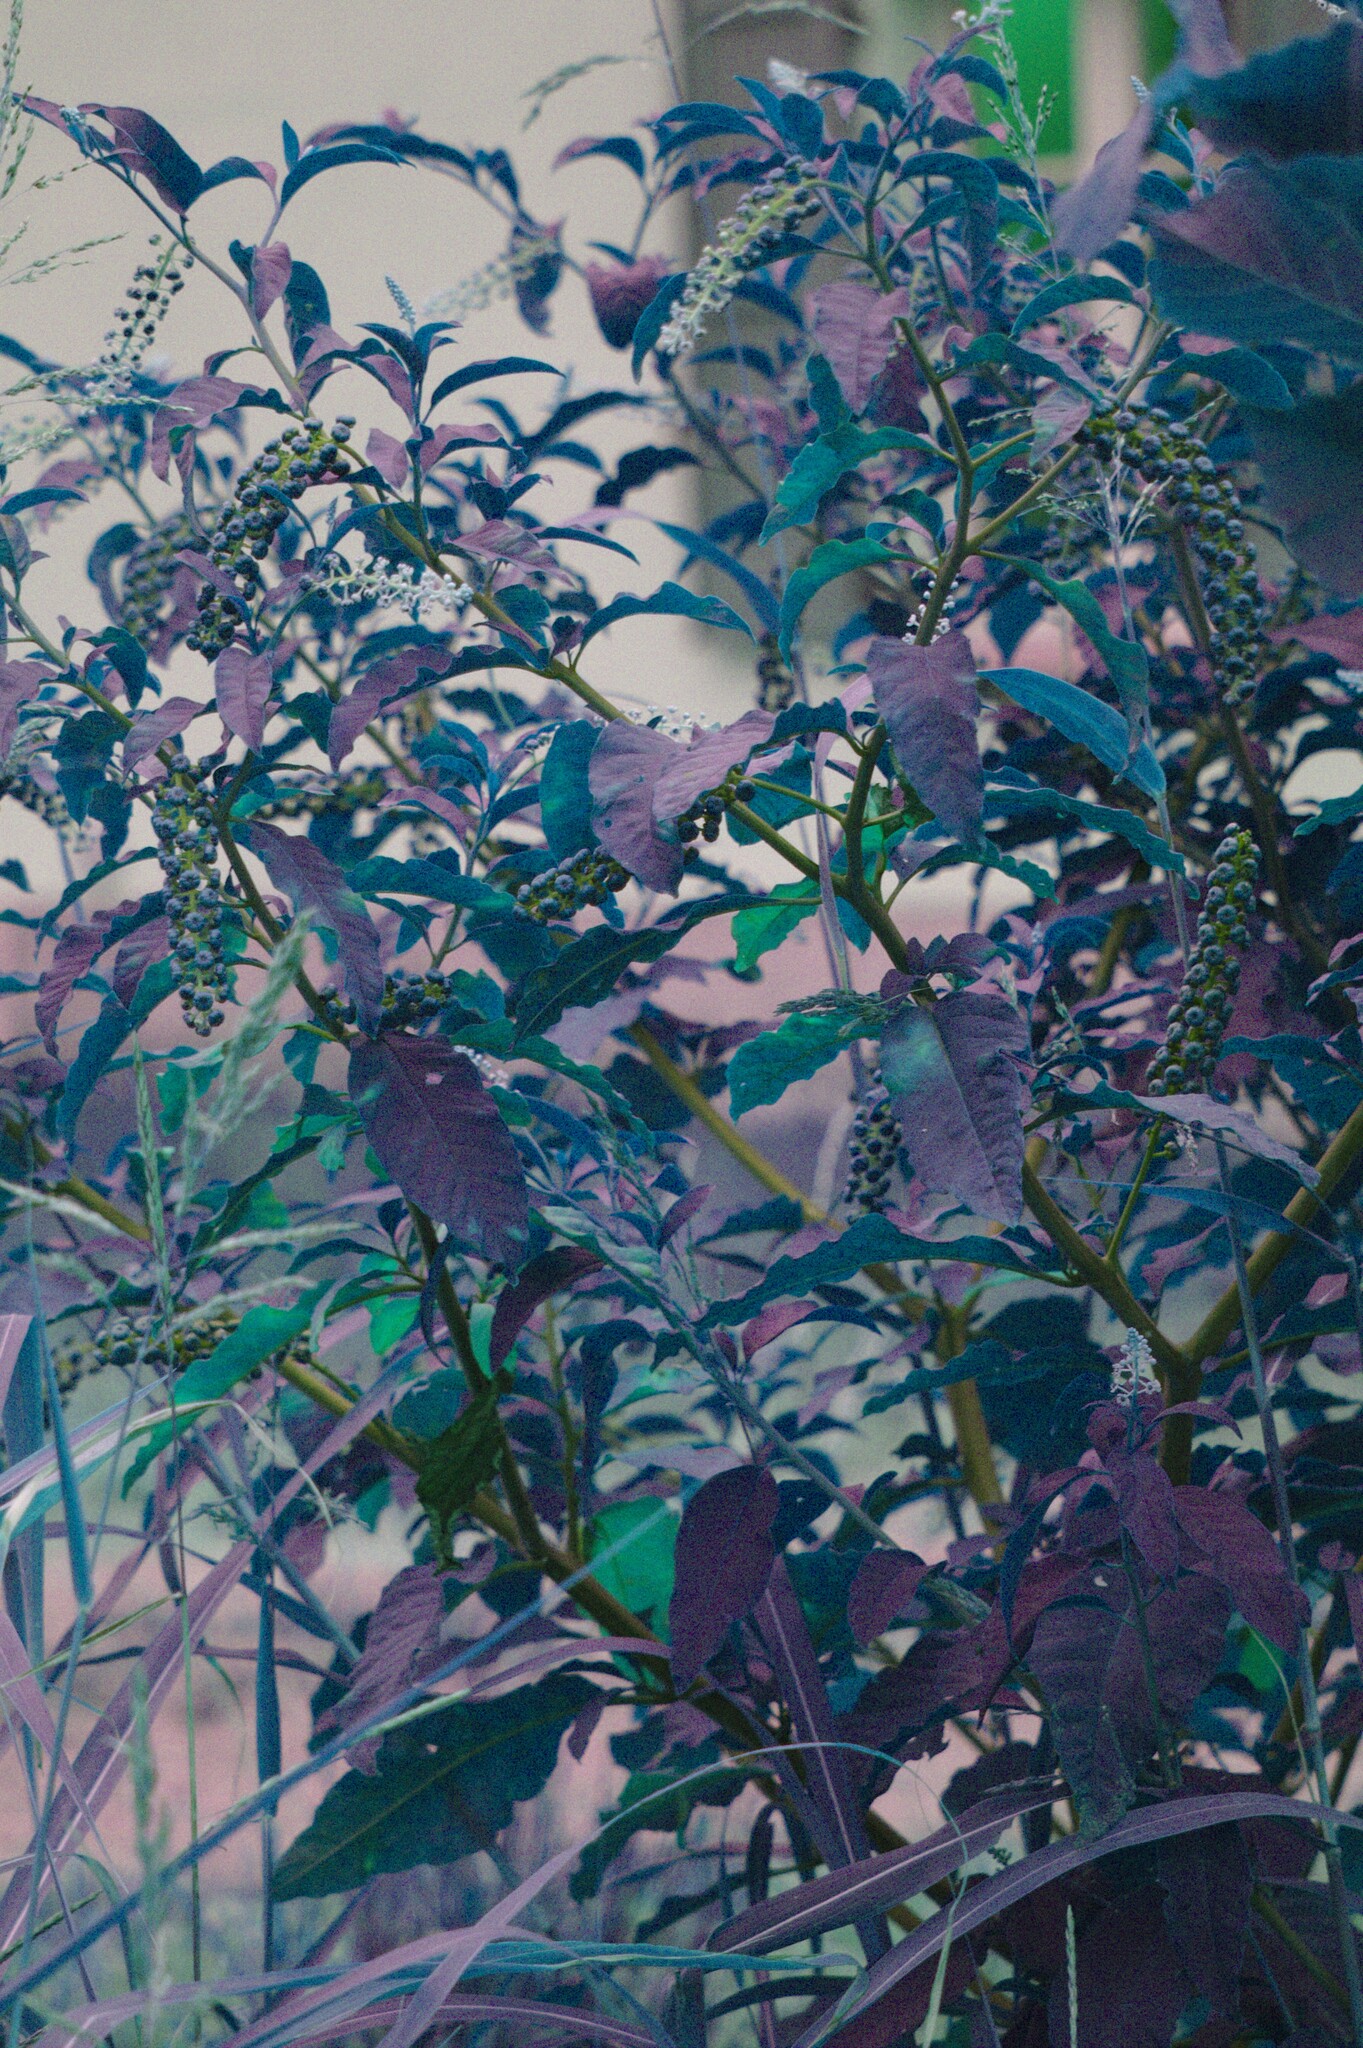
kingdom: Plantae
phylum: Tracheophyta
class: Magnoliopsida
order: Caryophyllales
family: Phytolaccaceae
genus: Phytolacca
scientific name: Phytolacca americana
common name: American pokeweed
